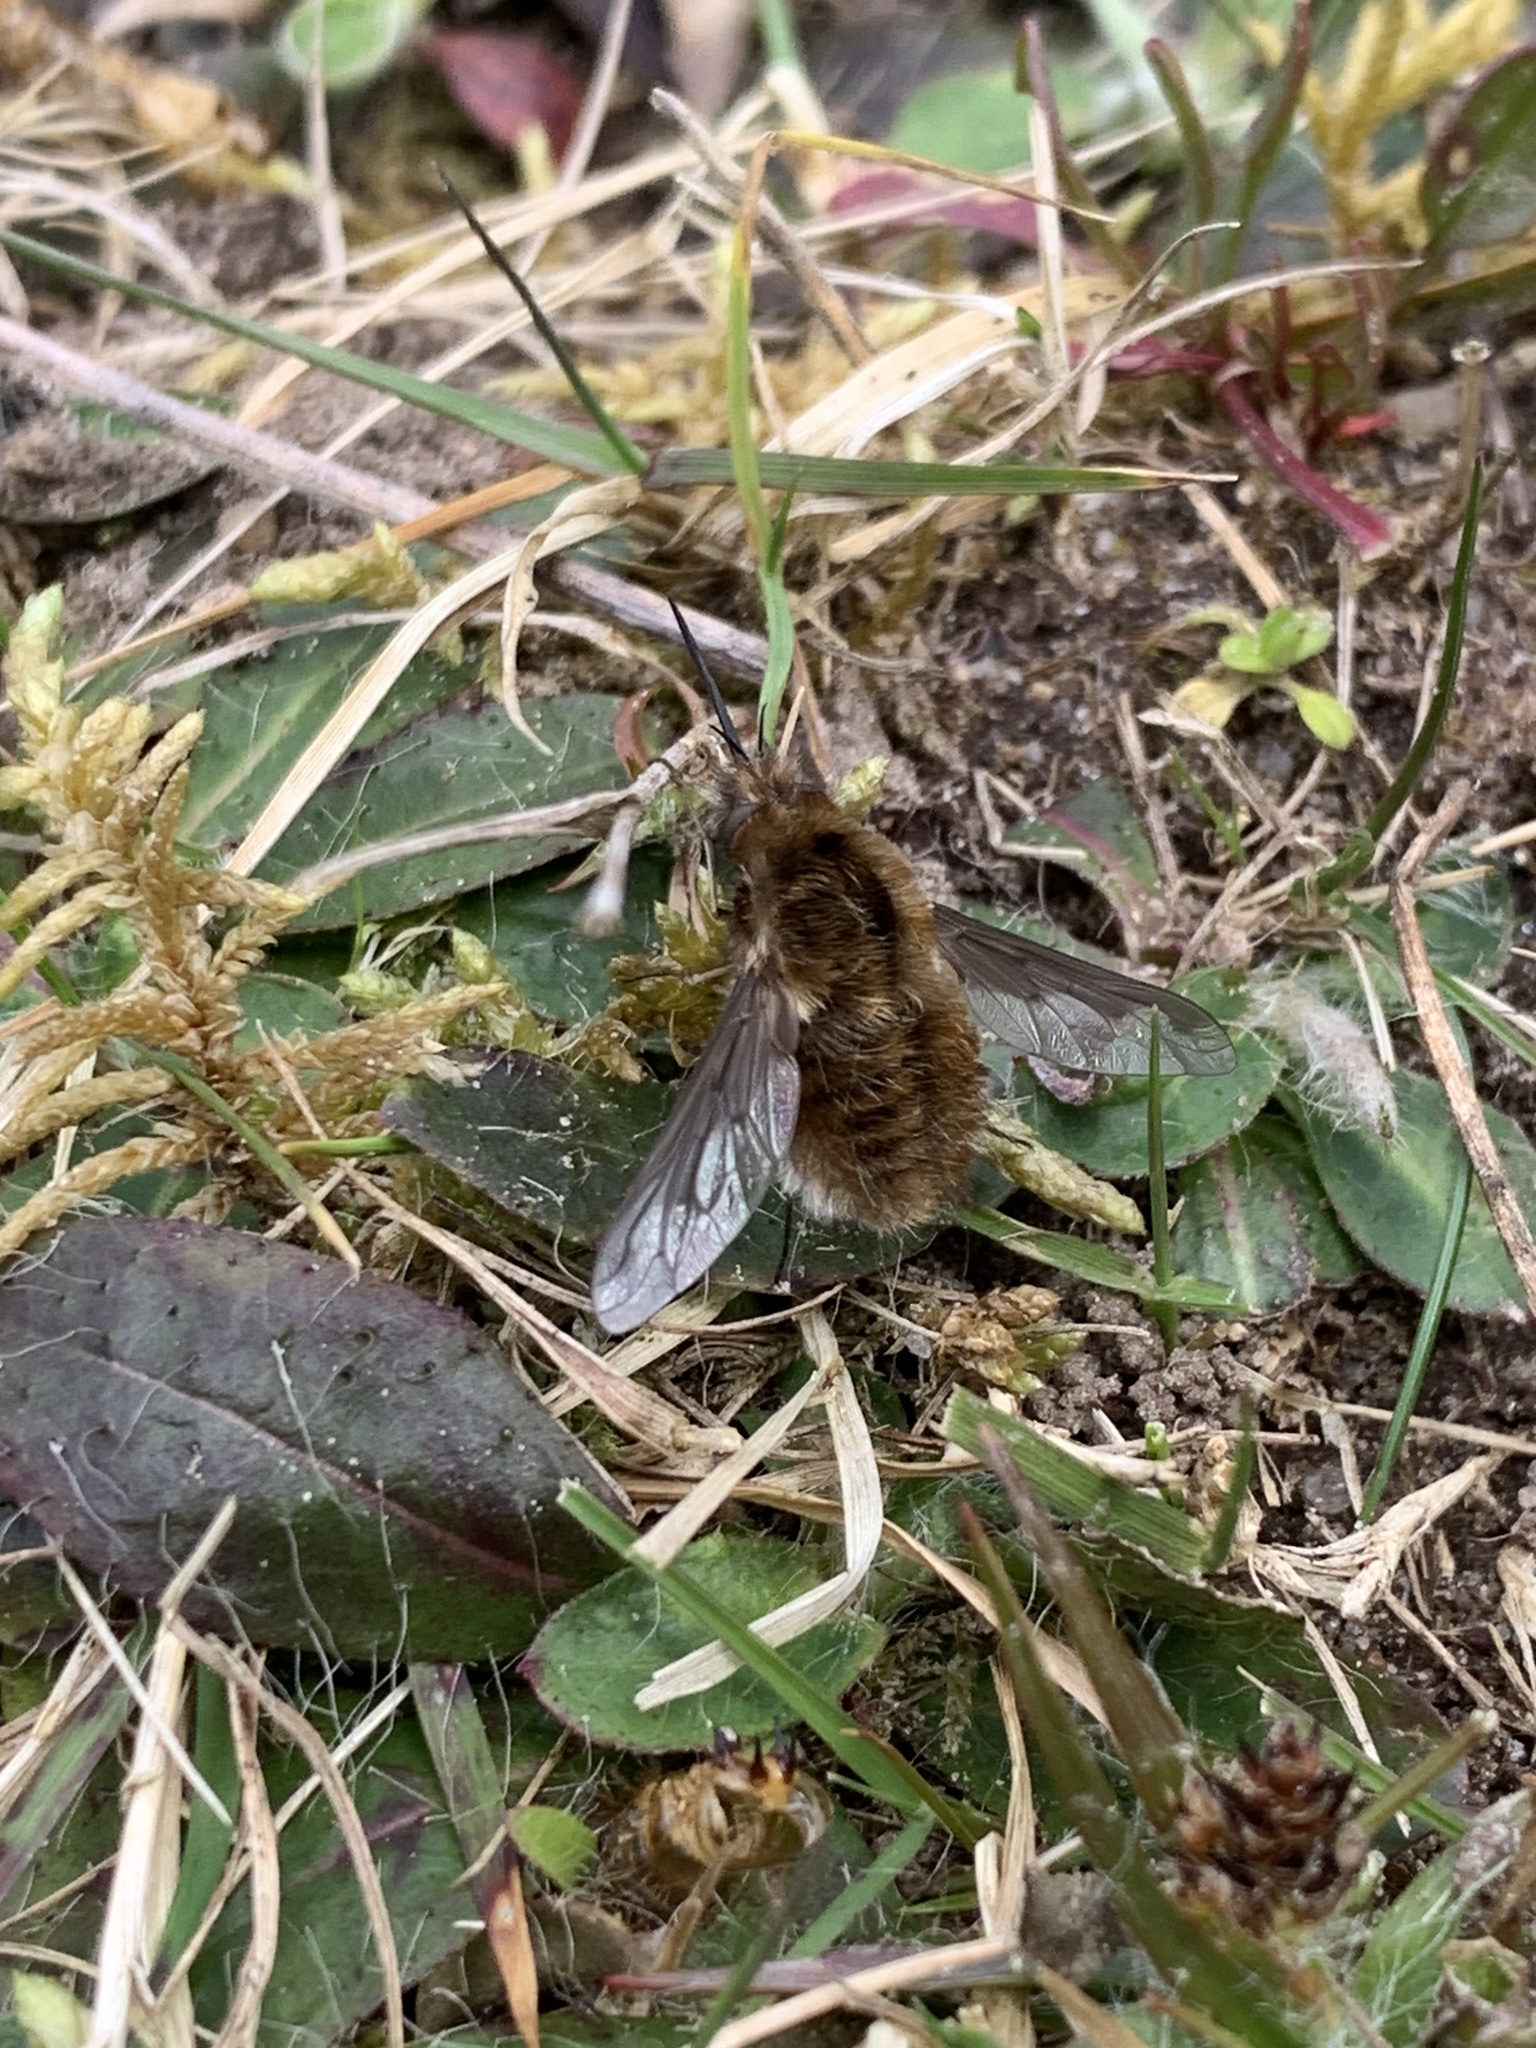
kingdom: Animalia
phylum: Arthropoda
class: Insecta
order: Diptera
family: Bombyliidae
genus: Bombylius
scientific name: Bombylius major
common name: Bee fly
